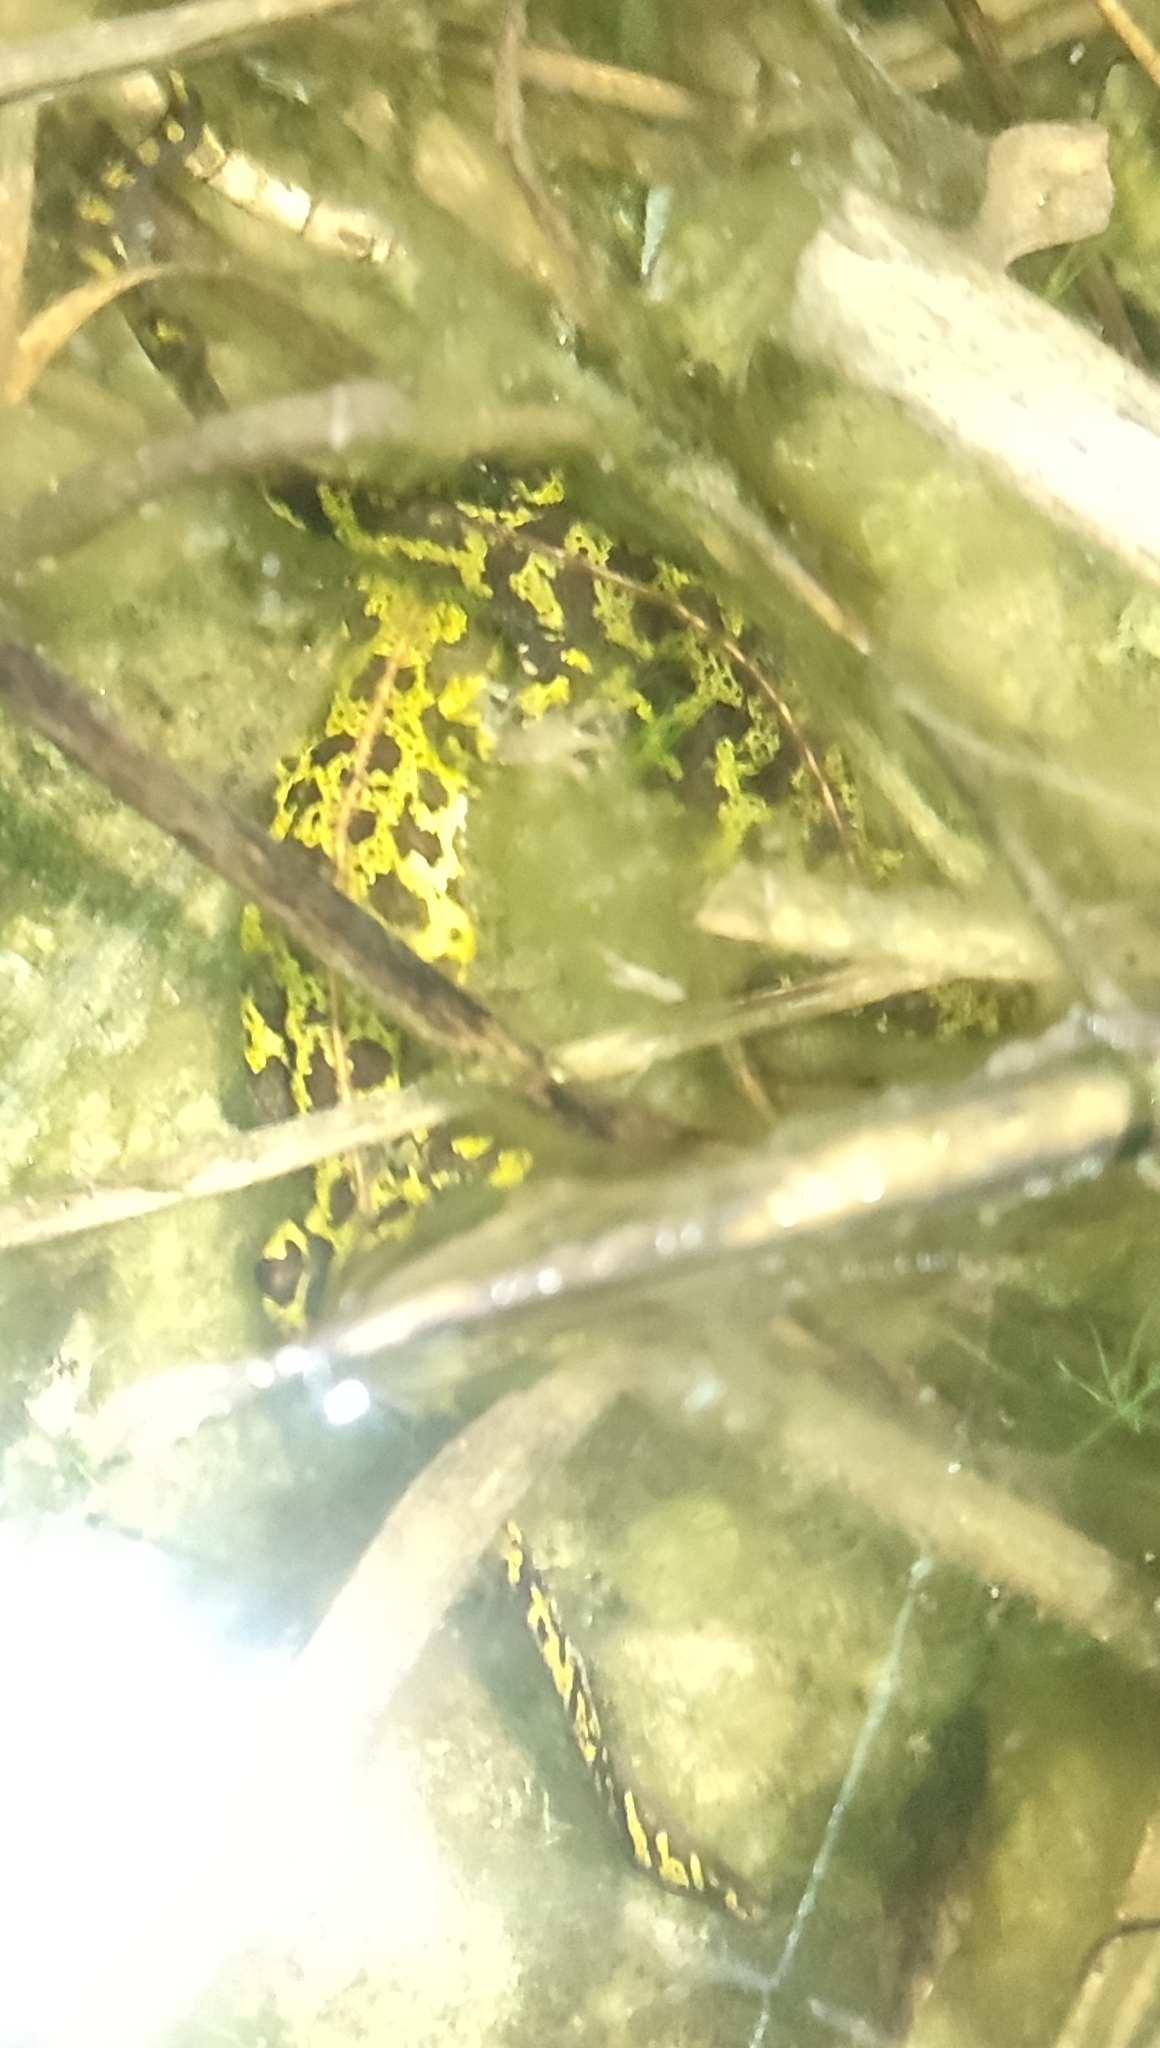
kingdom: Animalia
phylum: Chordata
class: Amphibia
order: Caudata
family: Salamandridae
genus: Triturus
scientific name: Triturus marmoratus
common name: Marbled newt
